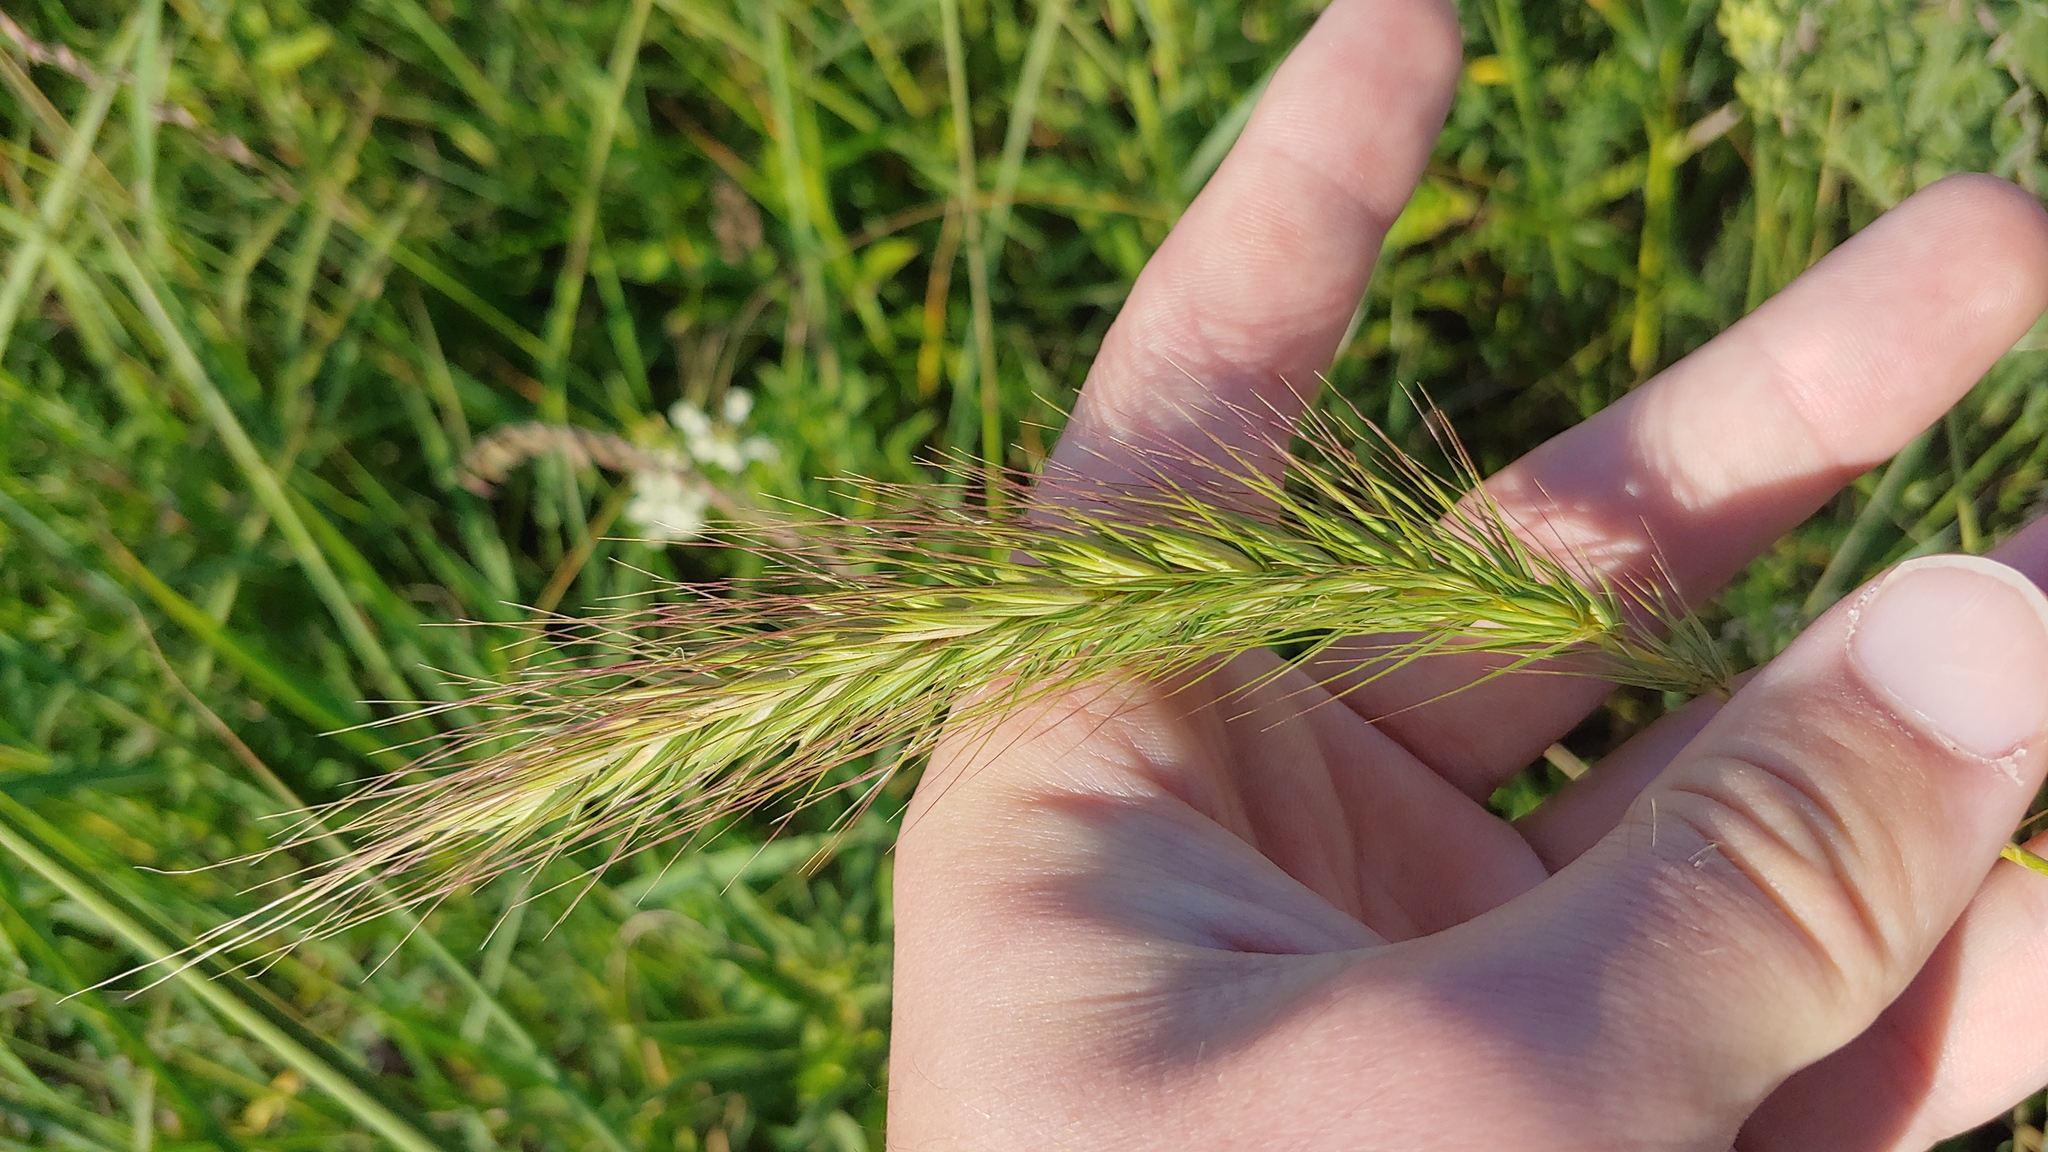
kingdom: Plantae
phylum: Tracheophyta
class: Liliopsida
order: Poales
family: Poaceae
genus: Elymus
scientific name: Elymus canadensis
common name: Canada wild rye
